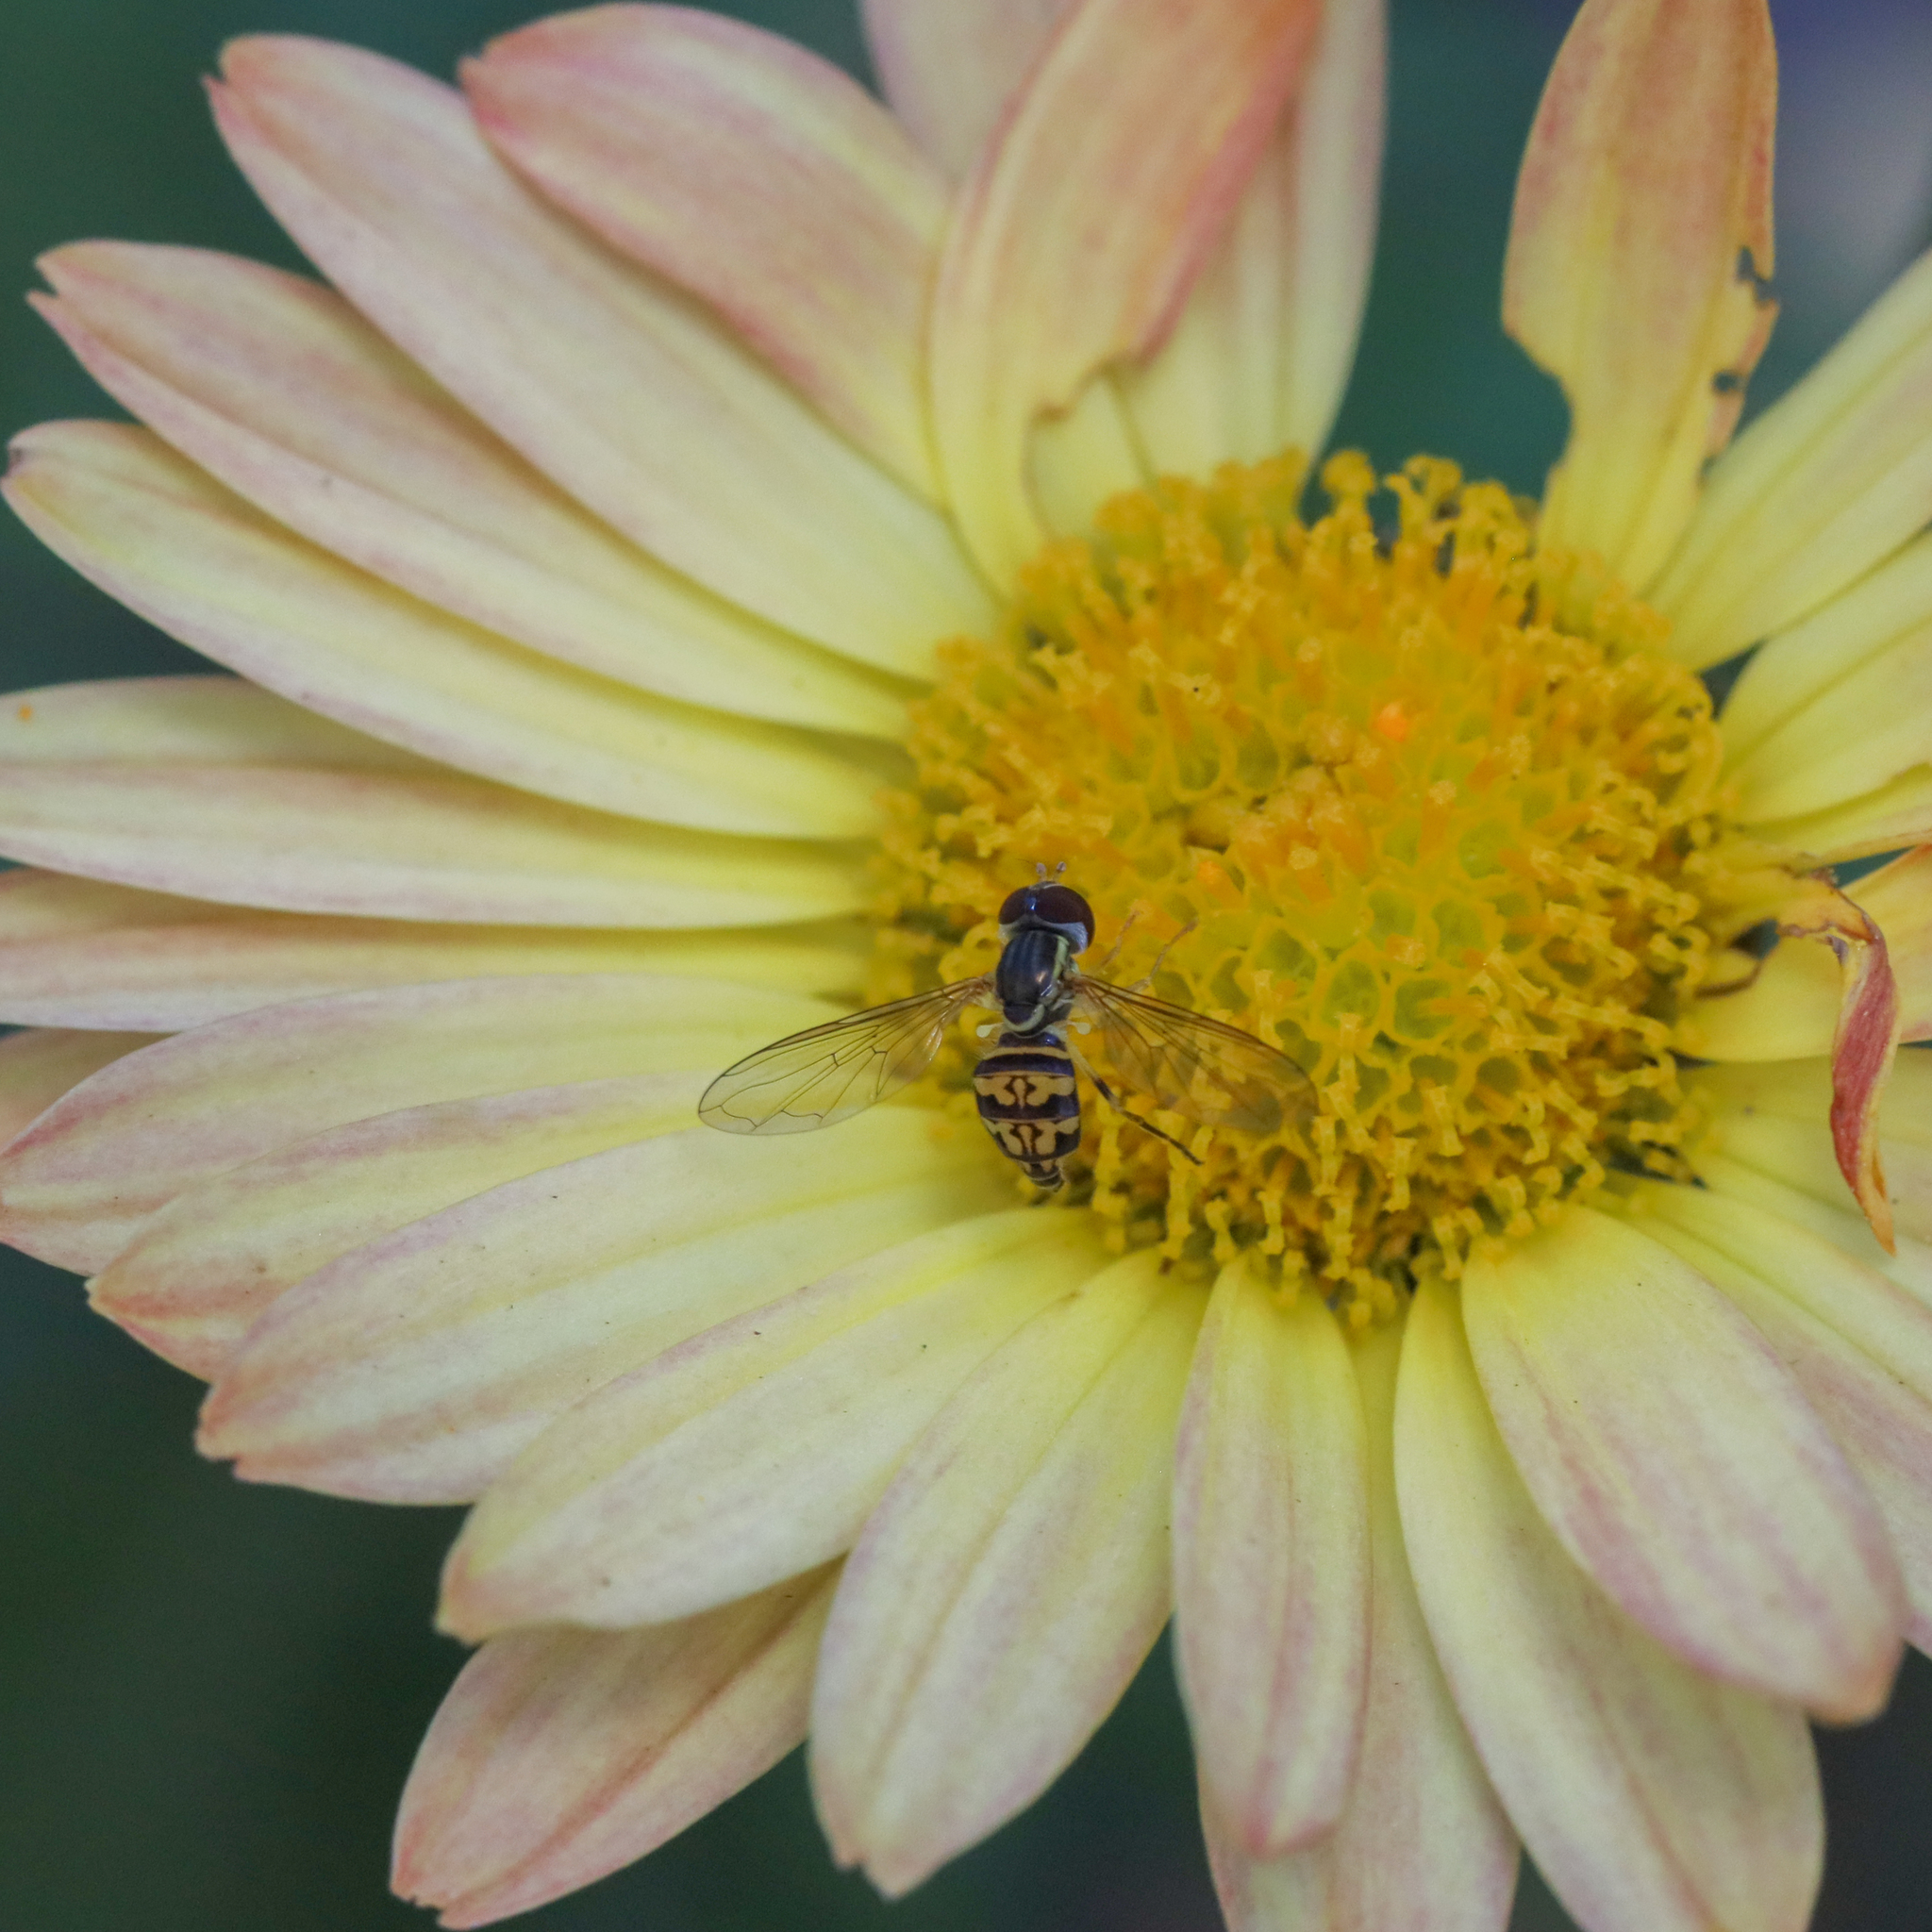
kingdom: Animalia
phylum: Arthropoda
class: Insecta
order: Diptera
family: Syrphidae
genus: Toxomerus
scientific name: Toxomerus geminatus
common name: Eastern calligrapher
